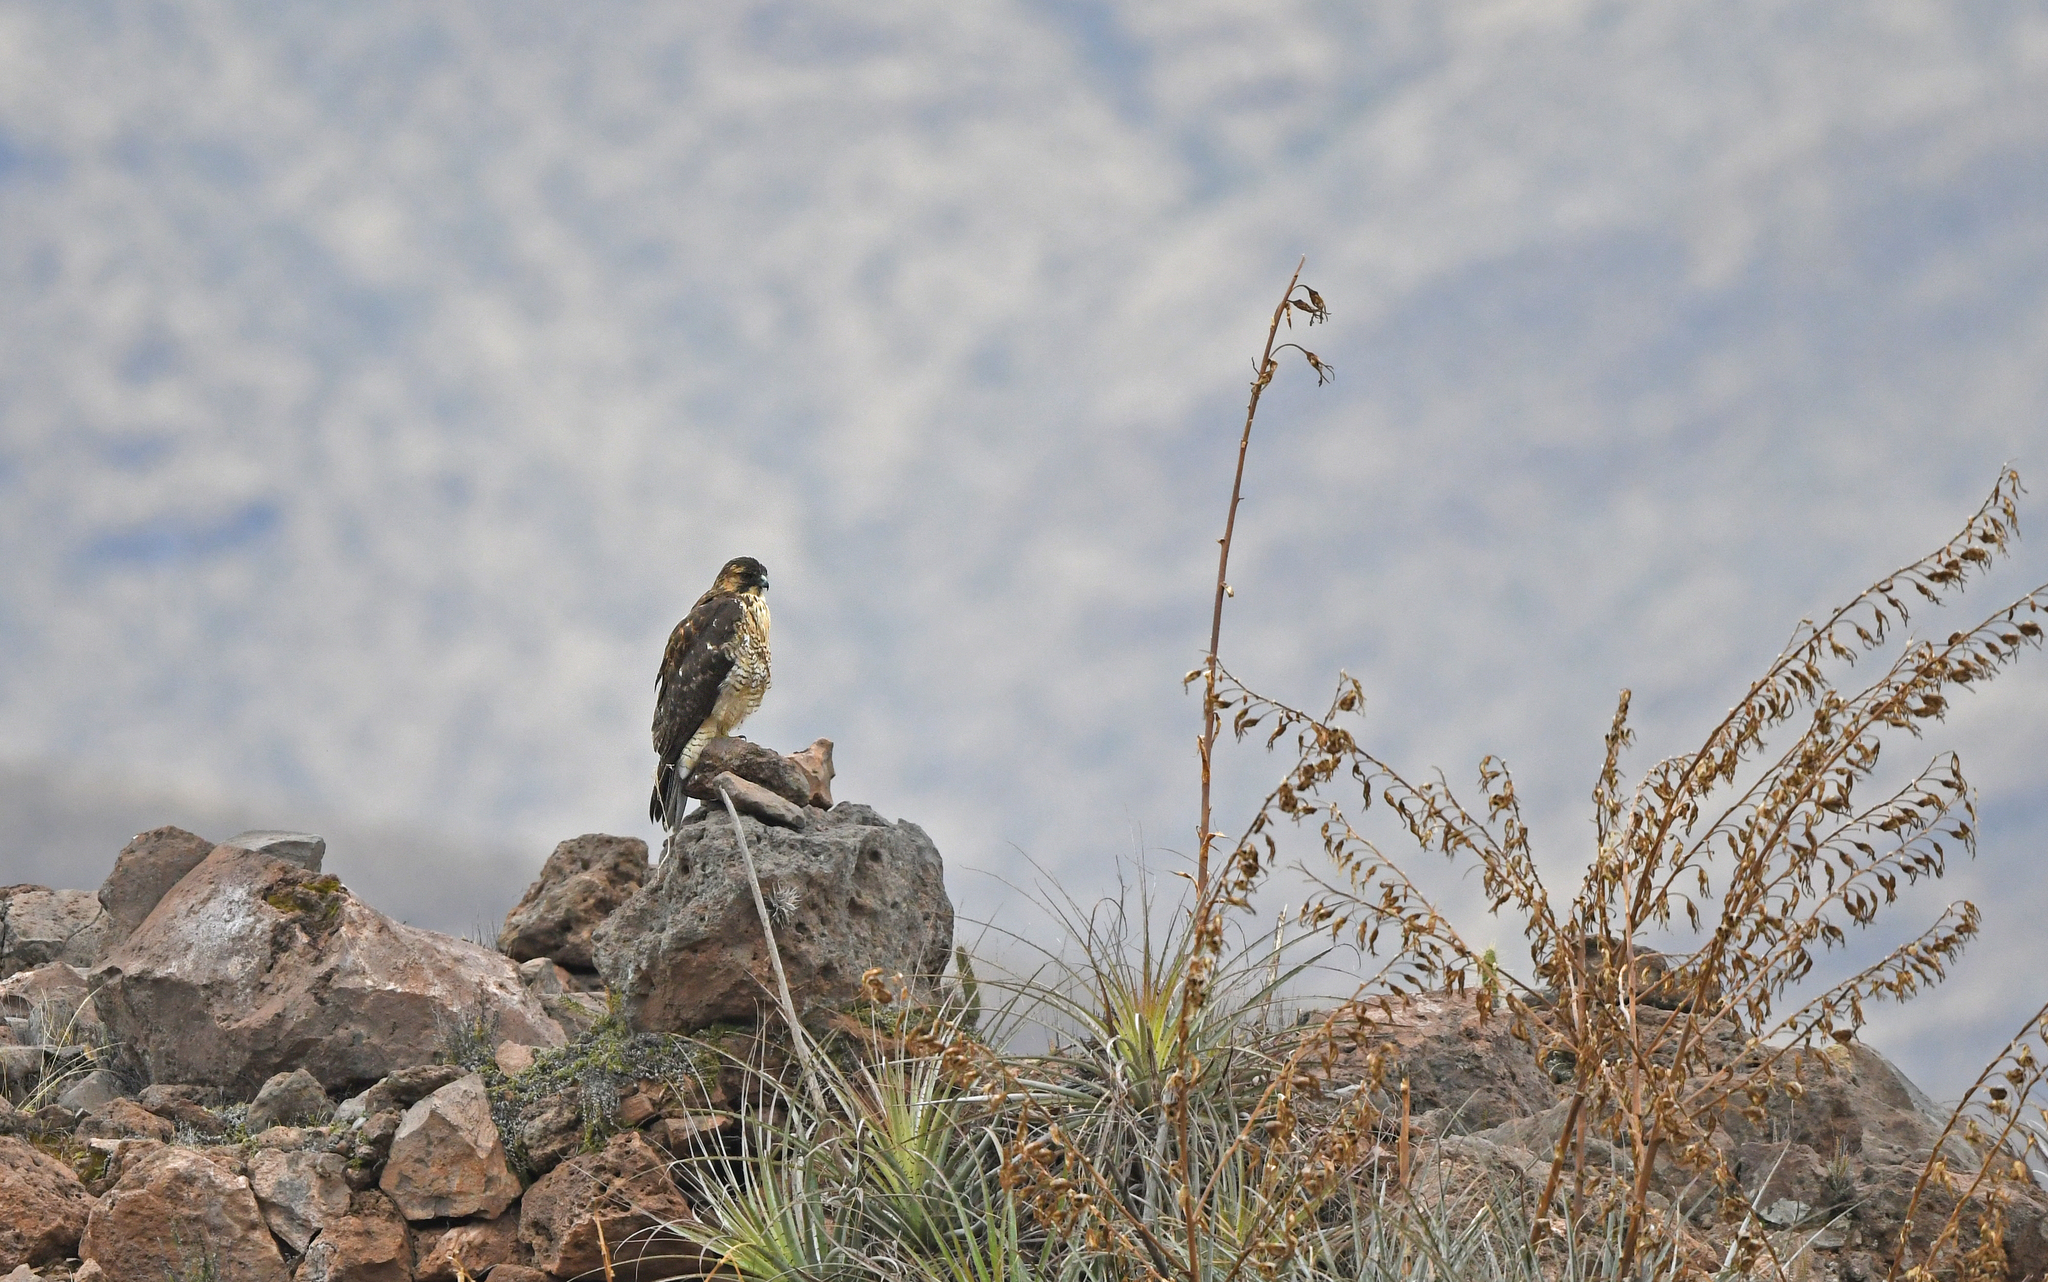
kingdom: Animalia
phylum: Chordata
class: Aves
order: Accipitriformes
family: Accipitridae
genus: Buteo
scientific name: Buteo polyosoma
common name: Variable hawk
